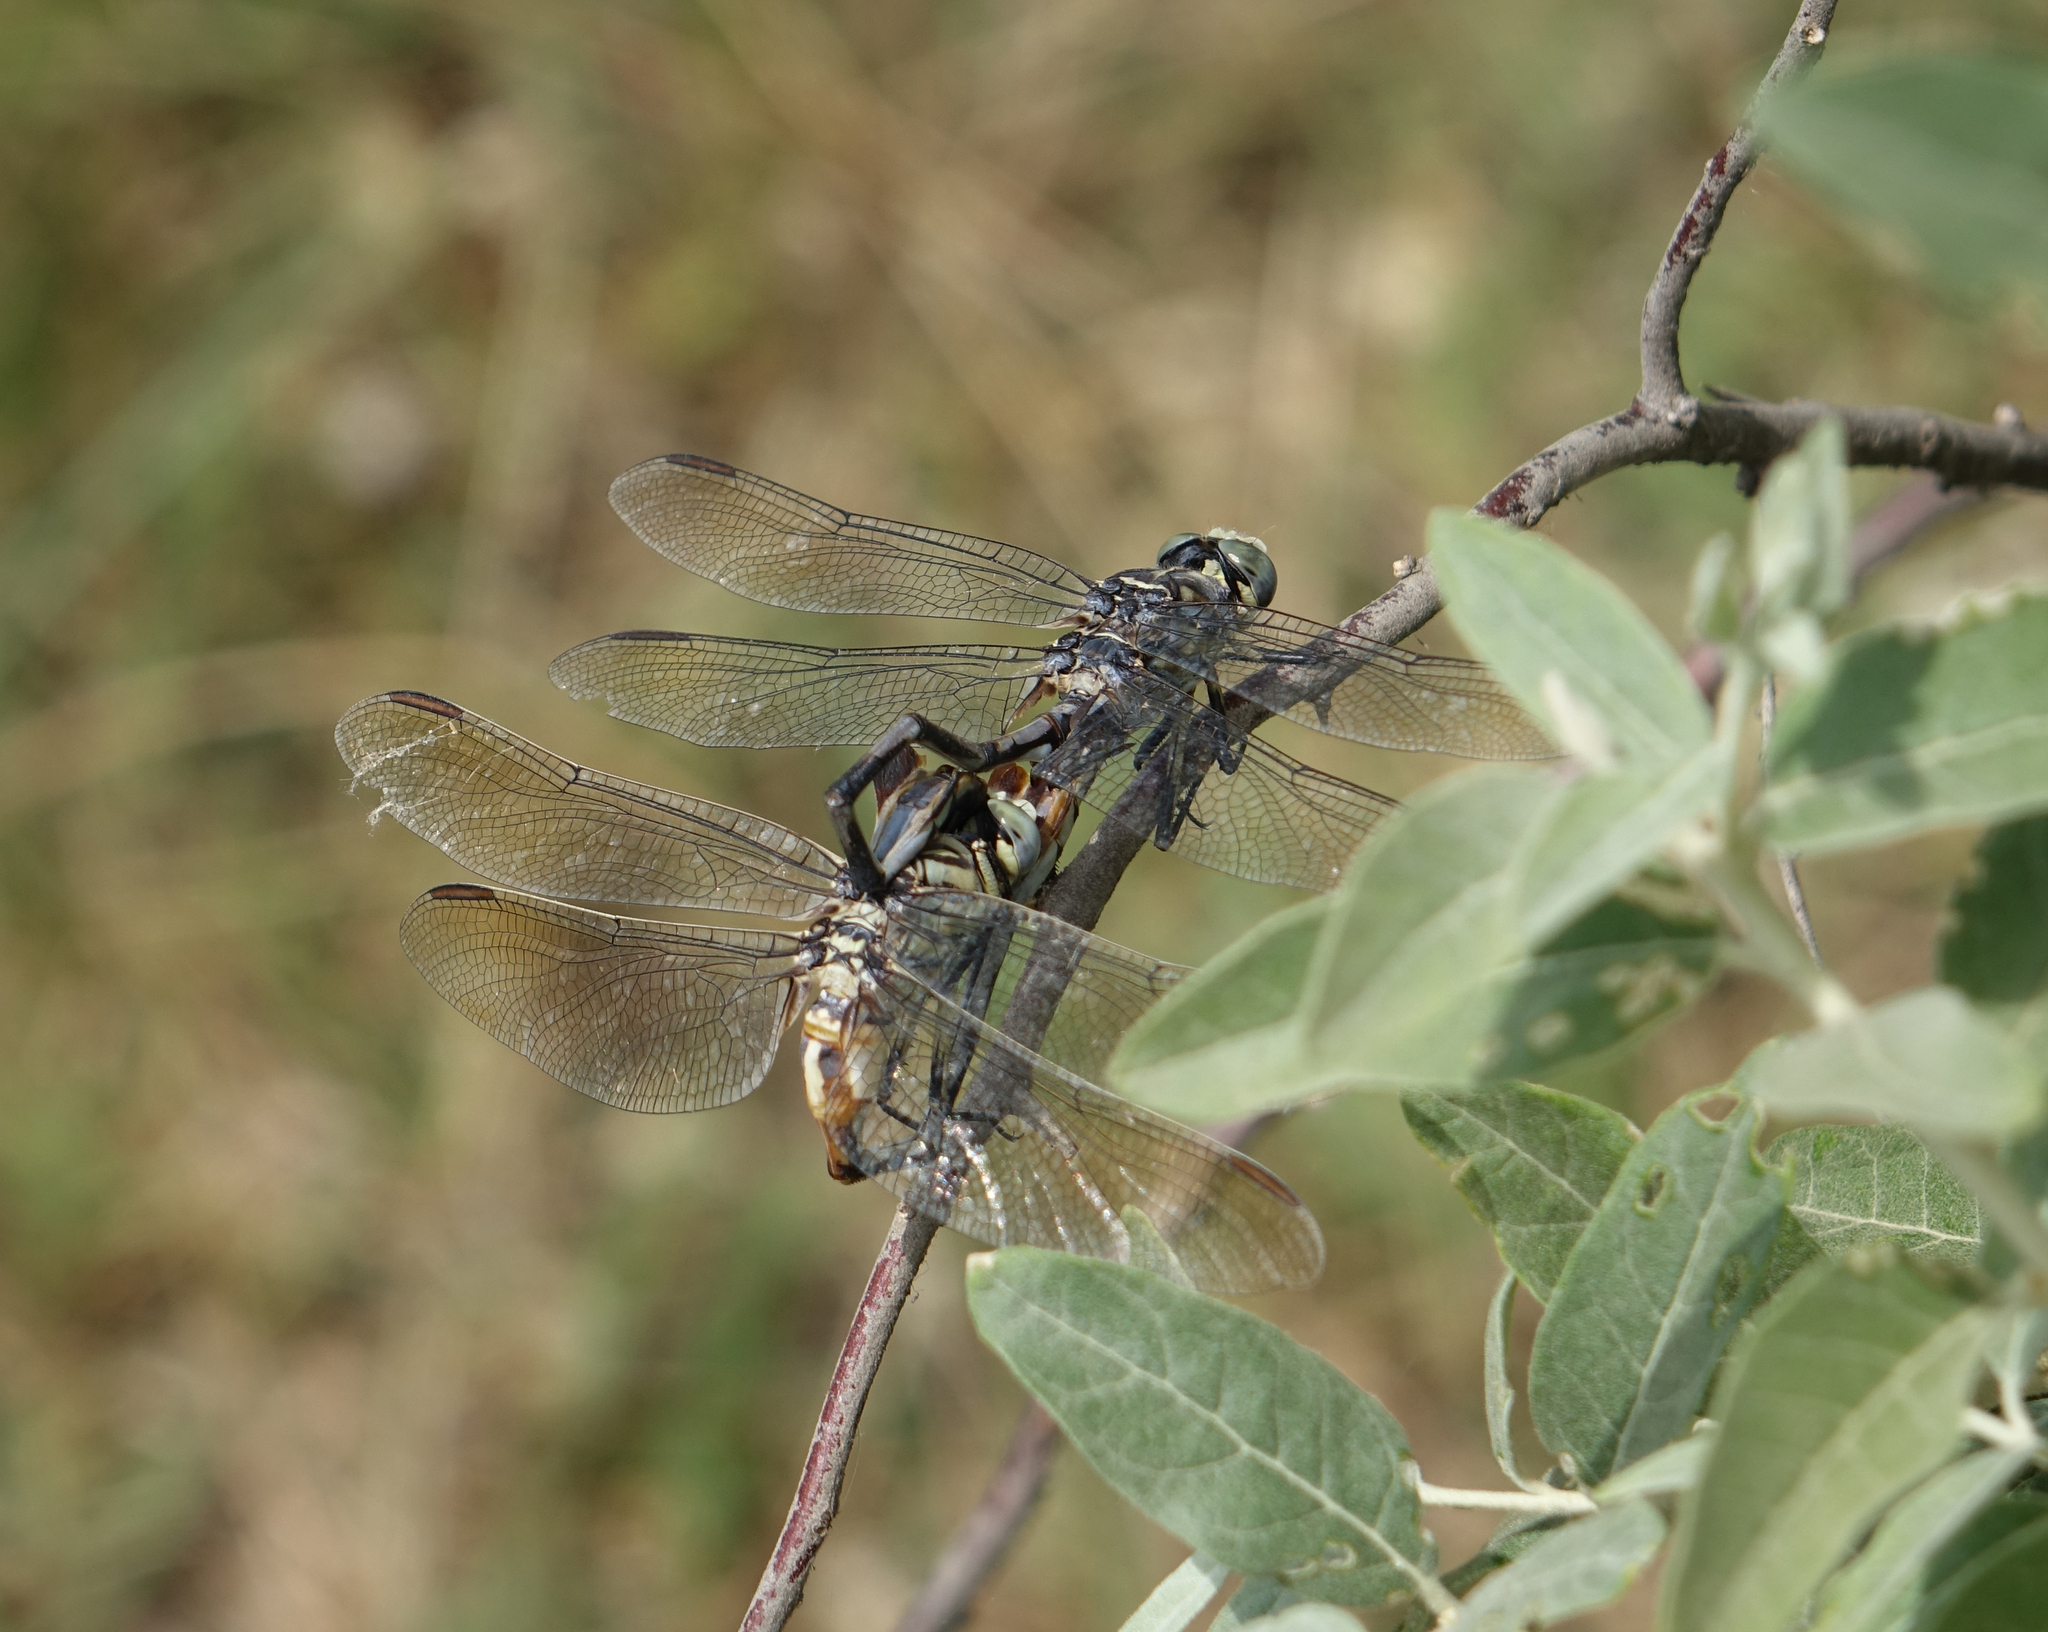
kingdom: Animalia
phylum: Arthropoda
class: Insecta
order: Odonata
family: Gomphidae
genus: Lindenia
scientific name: Lindenia tetraphylla
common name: Bladetail
